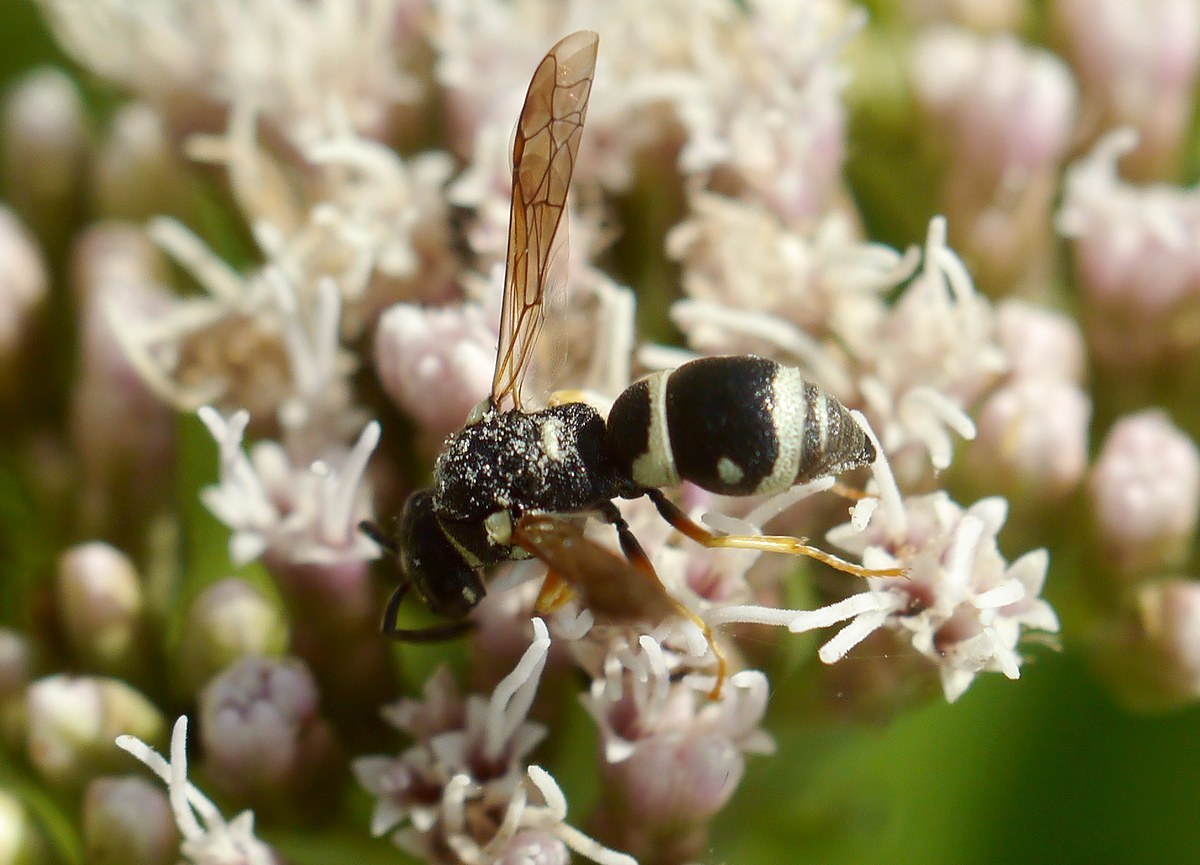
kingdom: Animalia
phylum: Arthropoda
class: Insecta
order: Hymenoptera
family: Eumenidae
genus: Parodontodynerus
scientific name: Parodontodynerus ephippium
